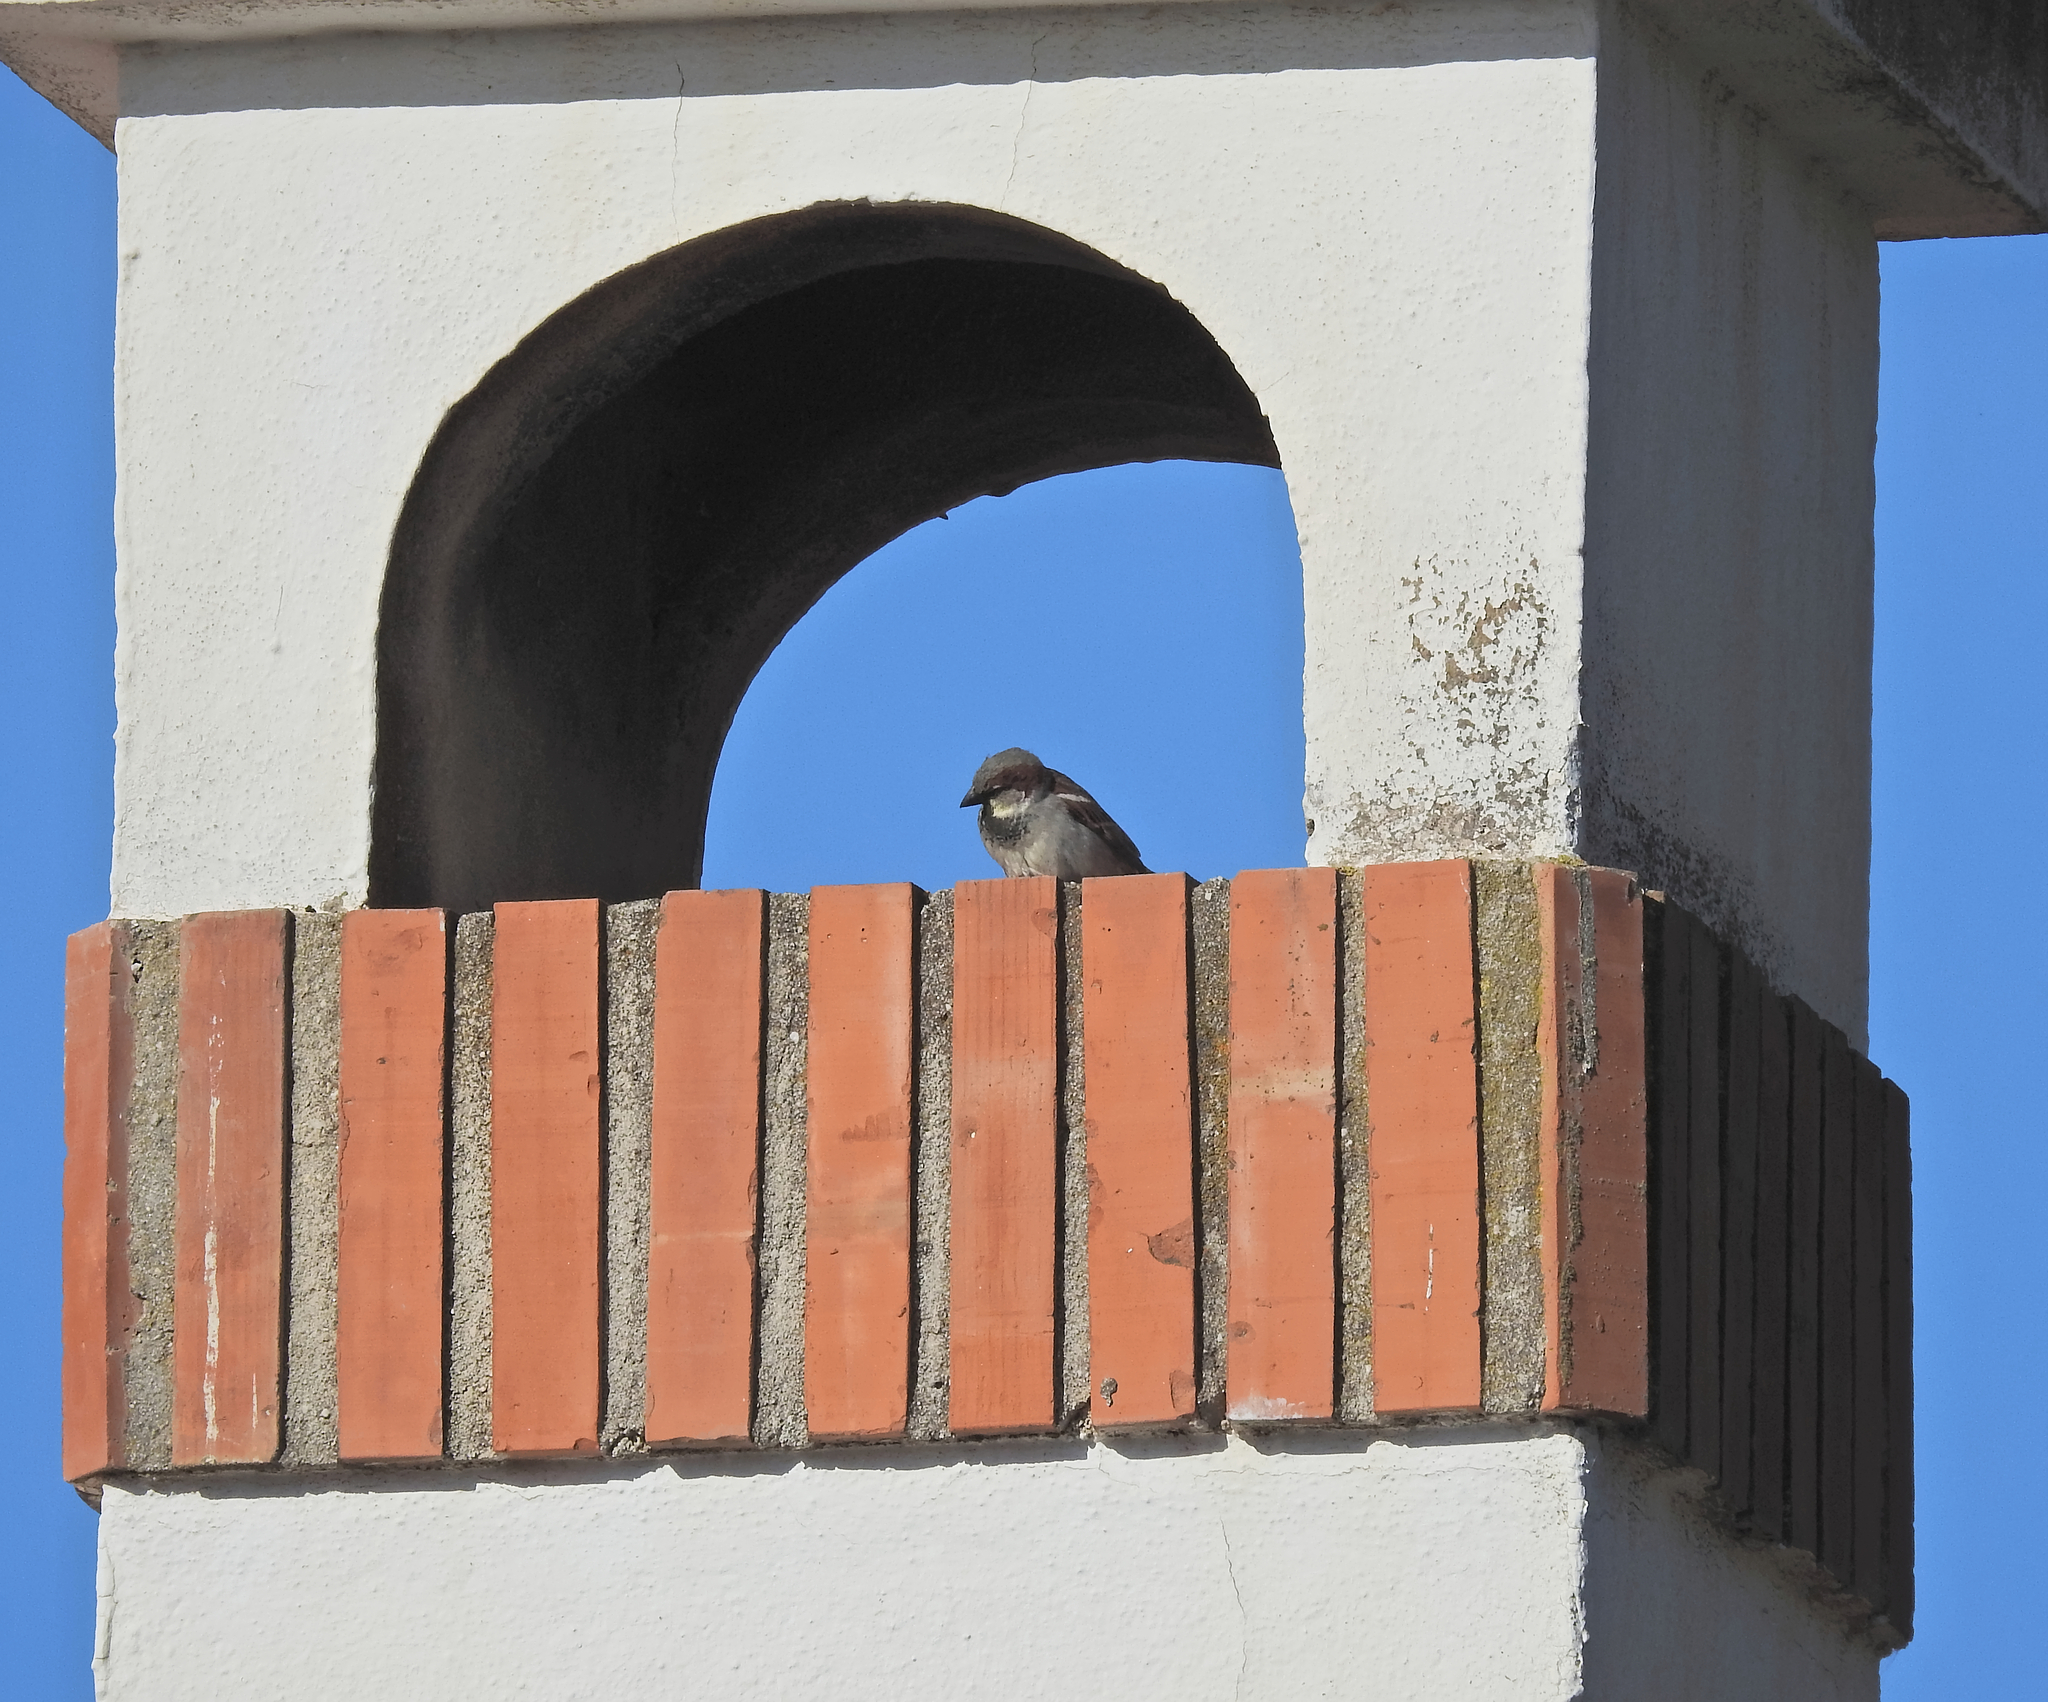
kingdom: Animalia
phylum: Chordata
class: Aves
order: Passeriformes
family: Passeridae
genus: Passer
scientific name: Passer domesticus
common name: House sparrow
